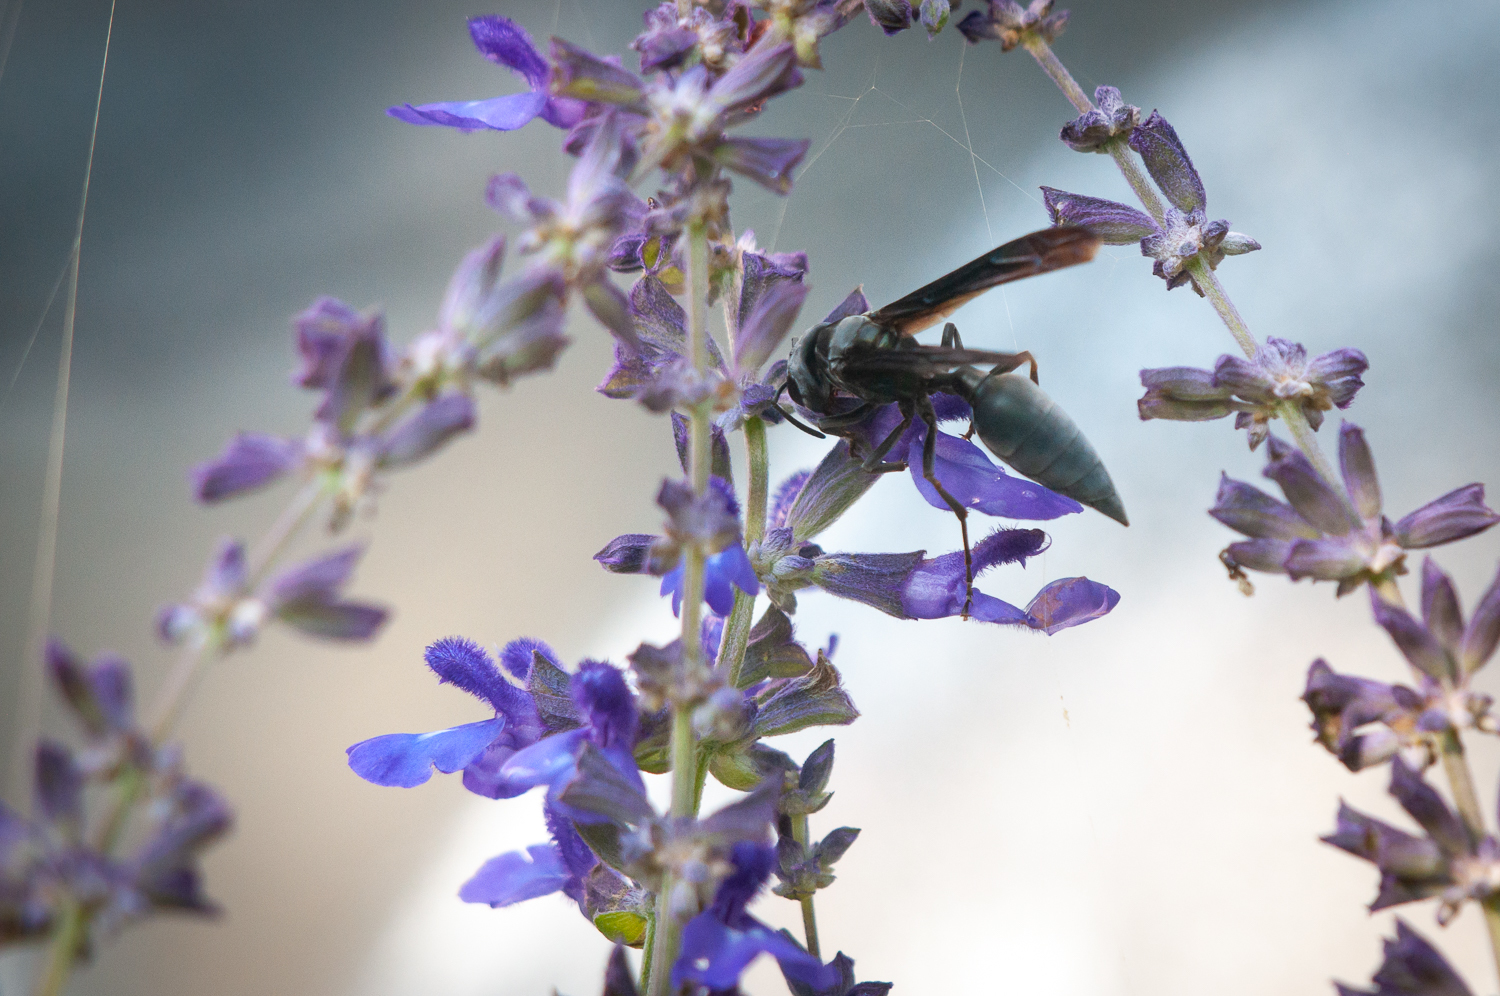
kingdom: Animalia
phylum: Arthropoda
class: Insecta
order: Hymenoptera
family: Vespidae
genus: Synoeca
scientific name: Synoeca septentrionalis
